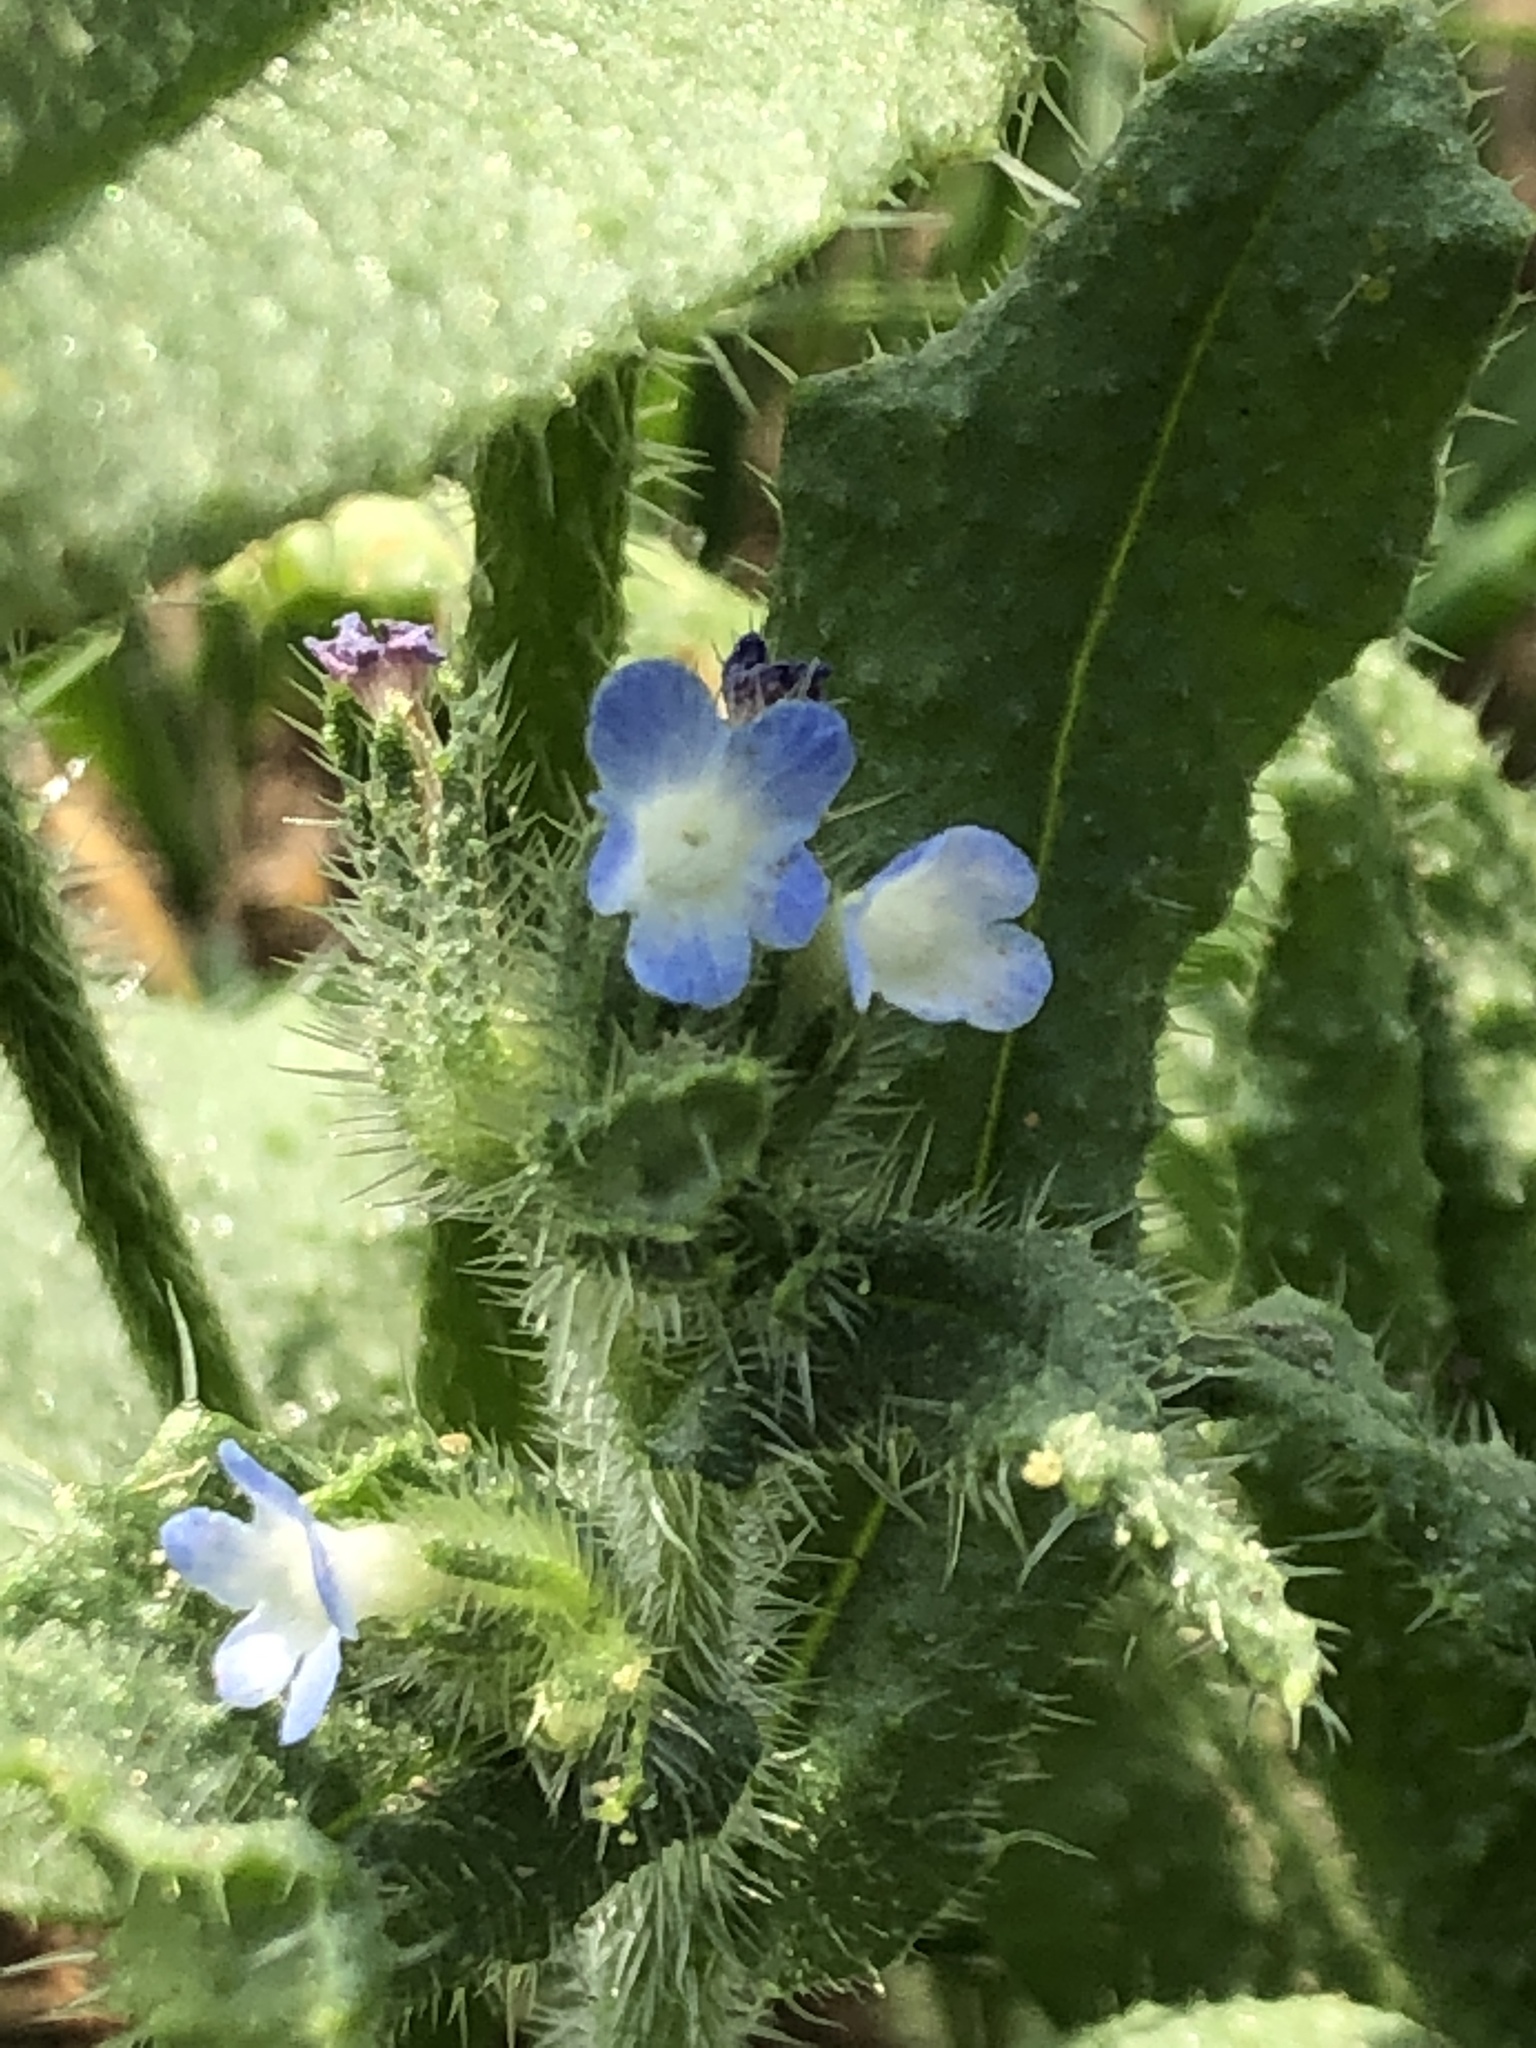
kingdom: Plantae
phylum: Tracheophyta
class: Magnoliopsida
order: Boraginales
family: Boraginaceae
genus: Lycopsis
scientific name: Lycopsis arvensis
